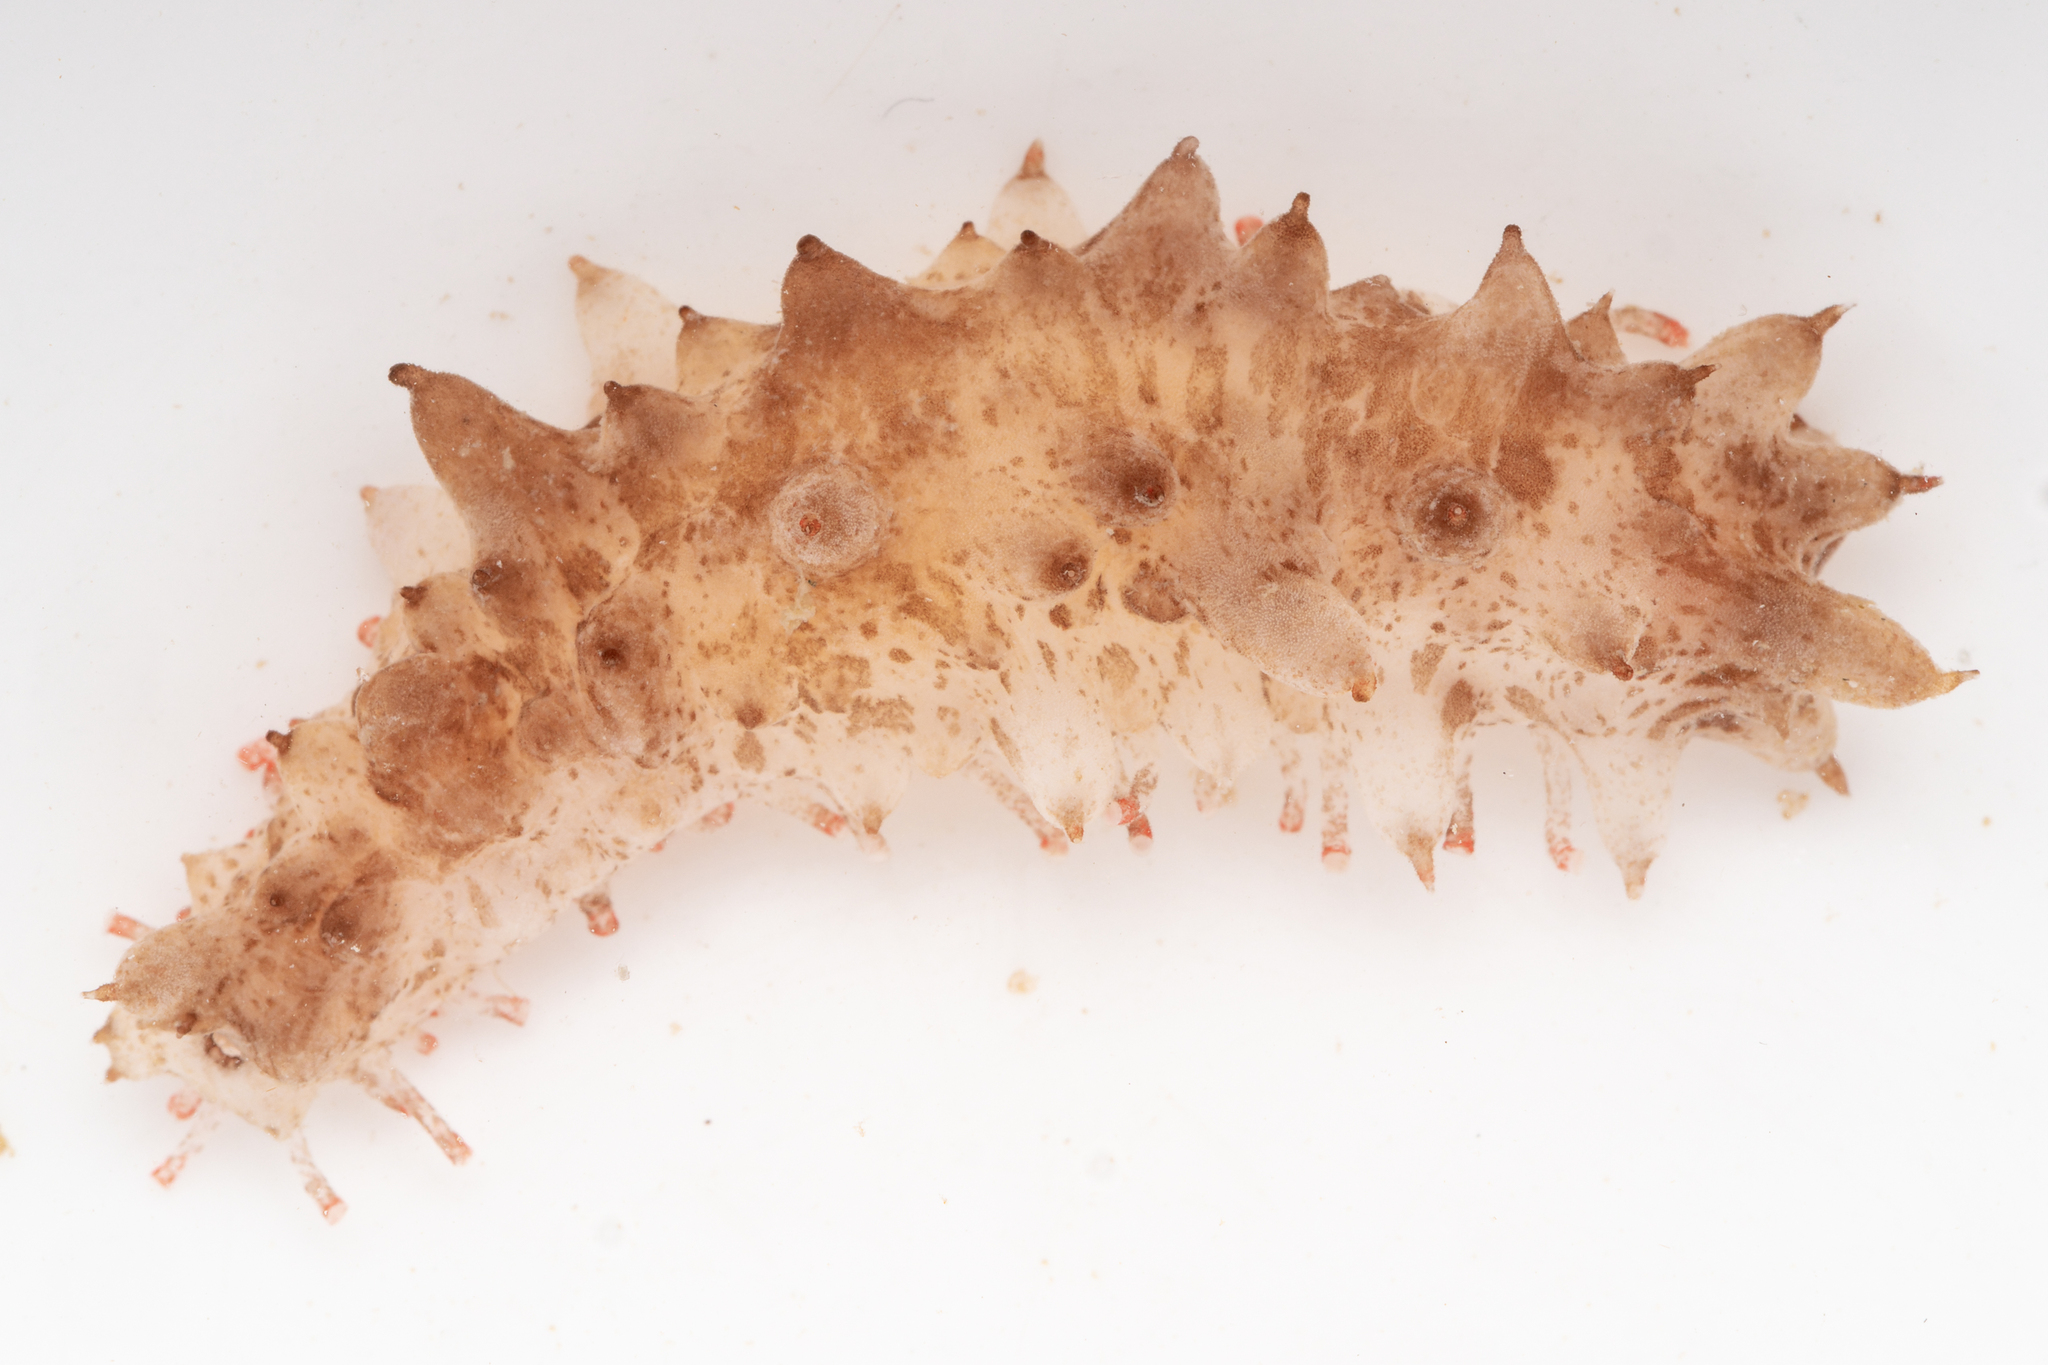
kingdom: Animalia
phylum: Echinodermata
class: Holothuroidea
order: Synallactida
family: Stichopodidae
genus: Australostichopus
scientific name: Australostichopus mollis
